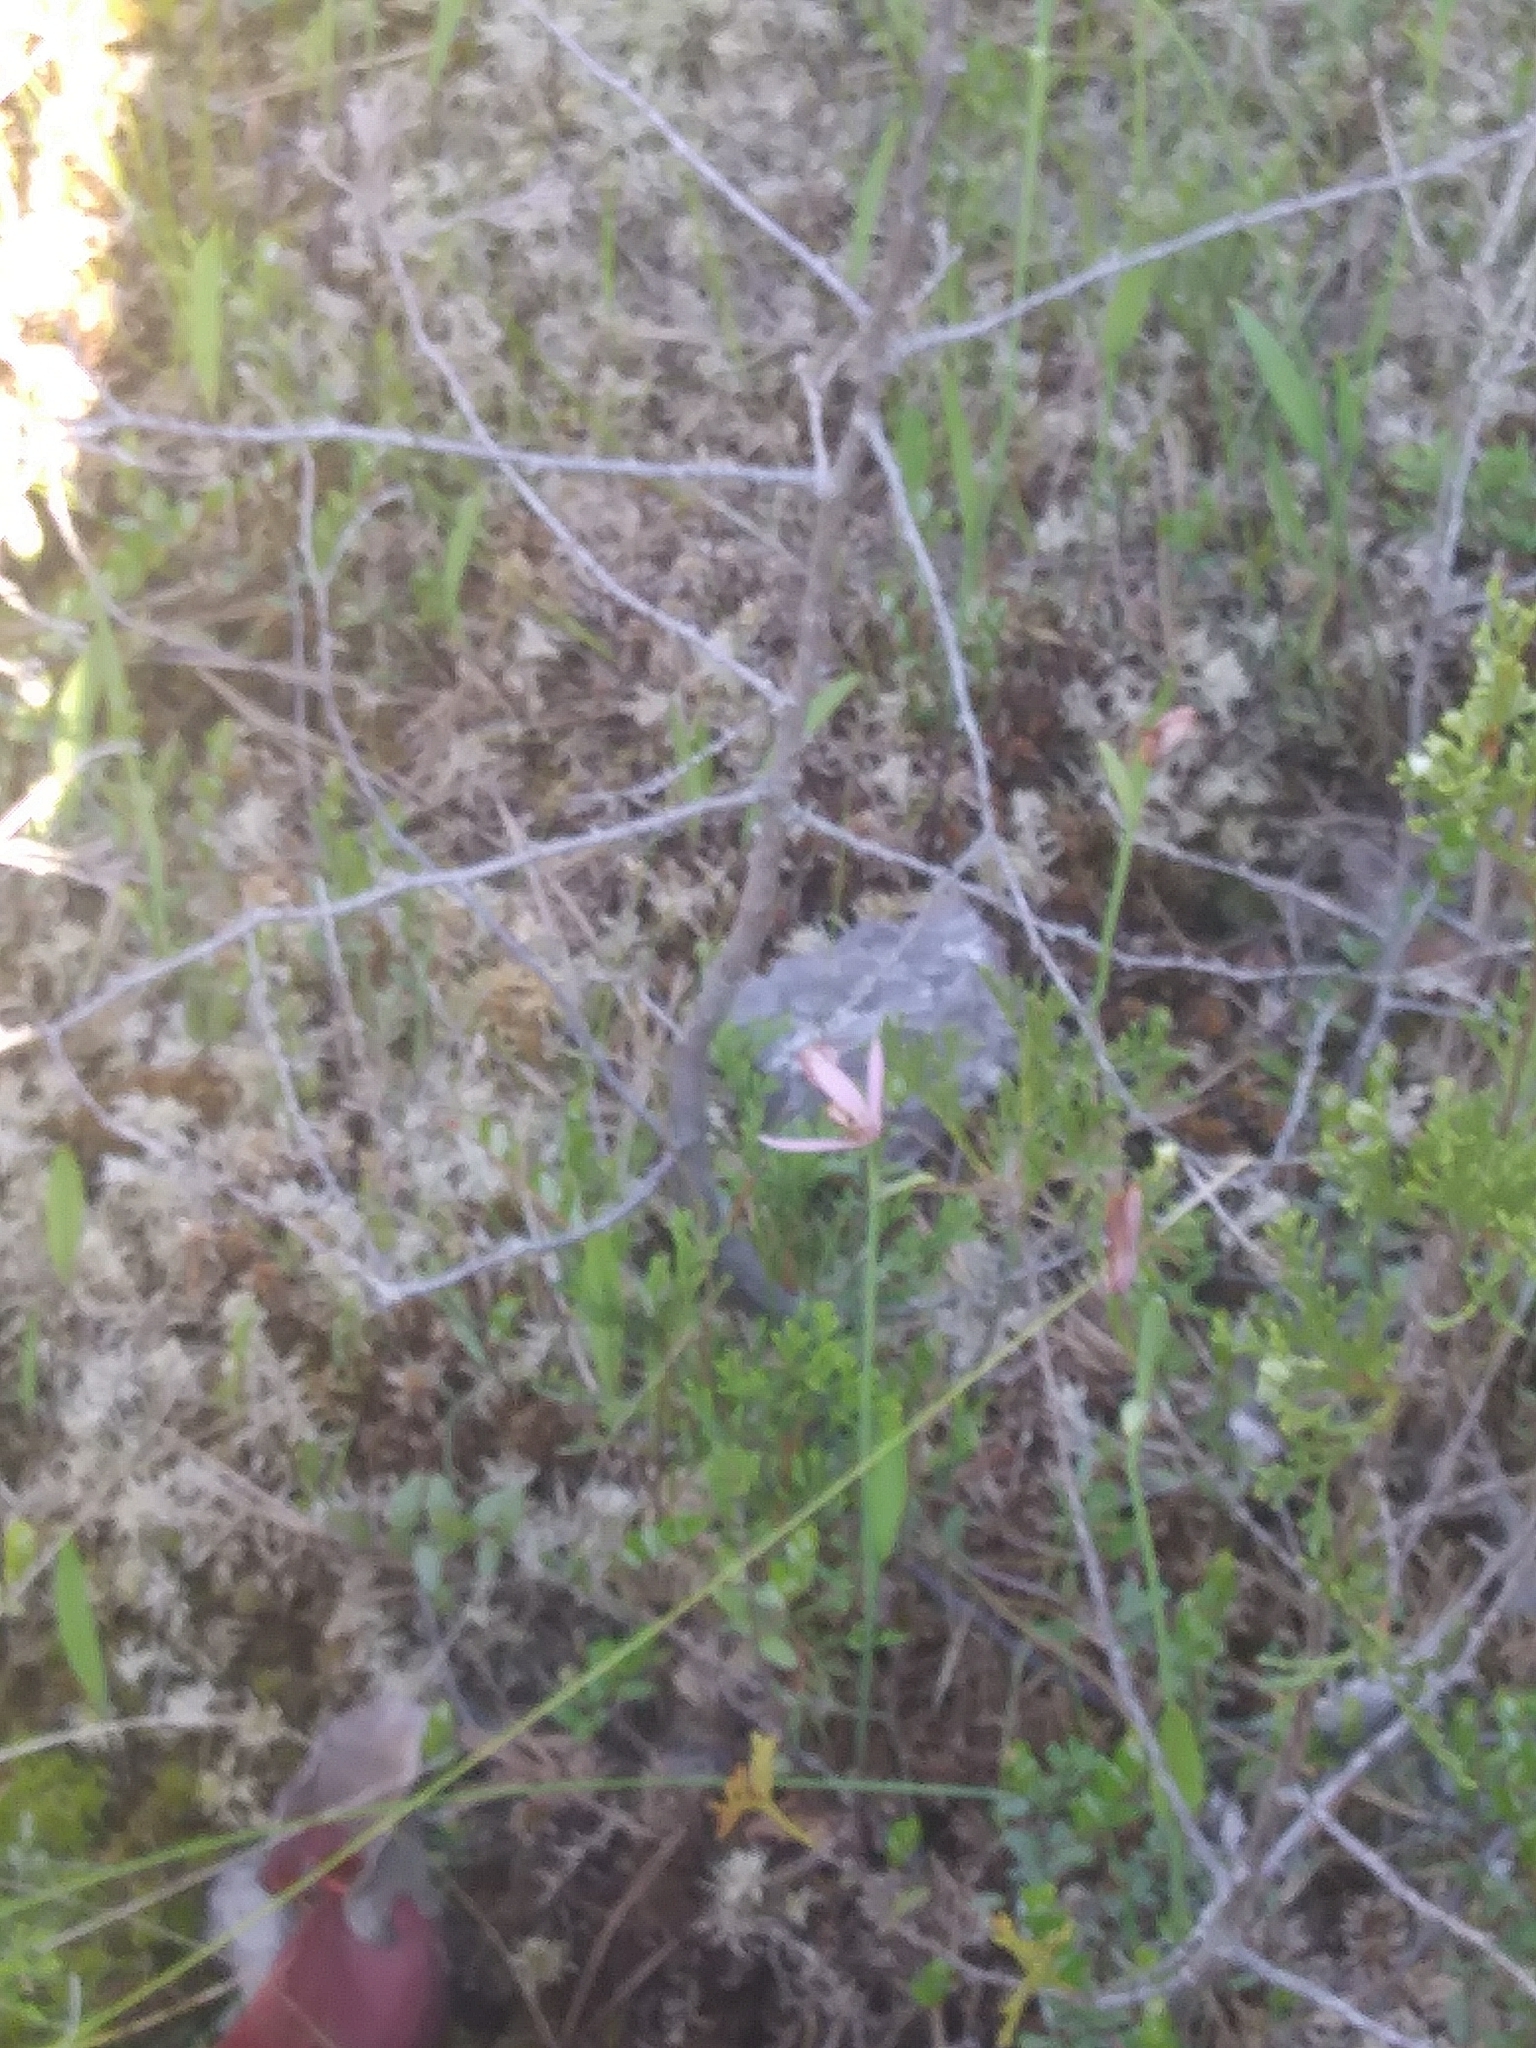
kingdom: Plantae
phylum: Tracheophyta
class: Liliopsida
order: Asparagales
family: Orchidaceae
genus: Pogonia
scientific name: Pogonia ophioglossoides
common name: Rose pogonia
